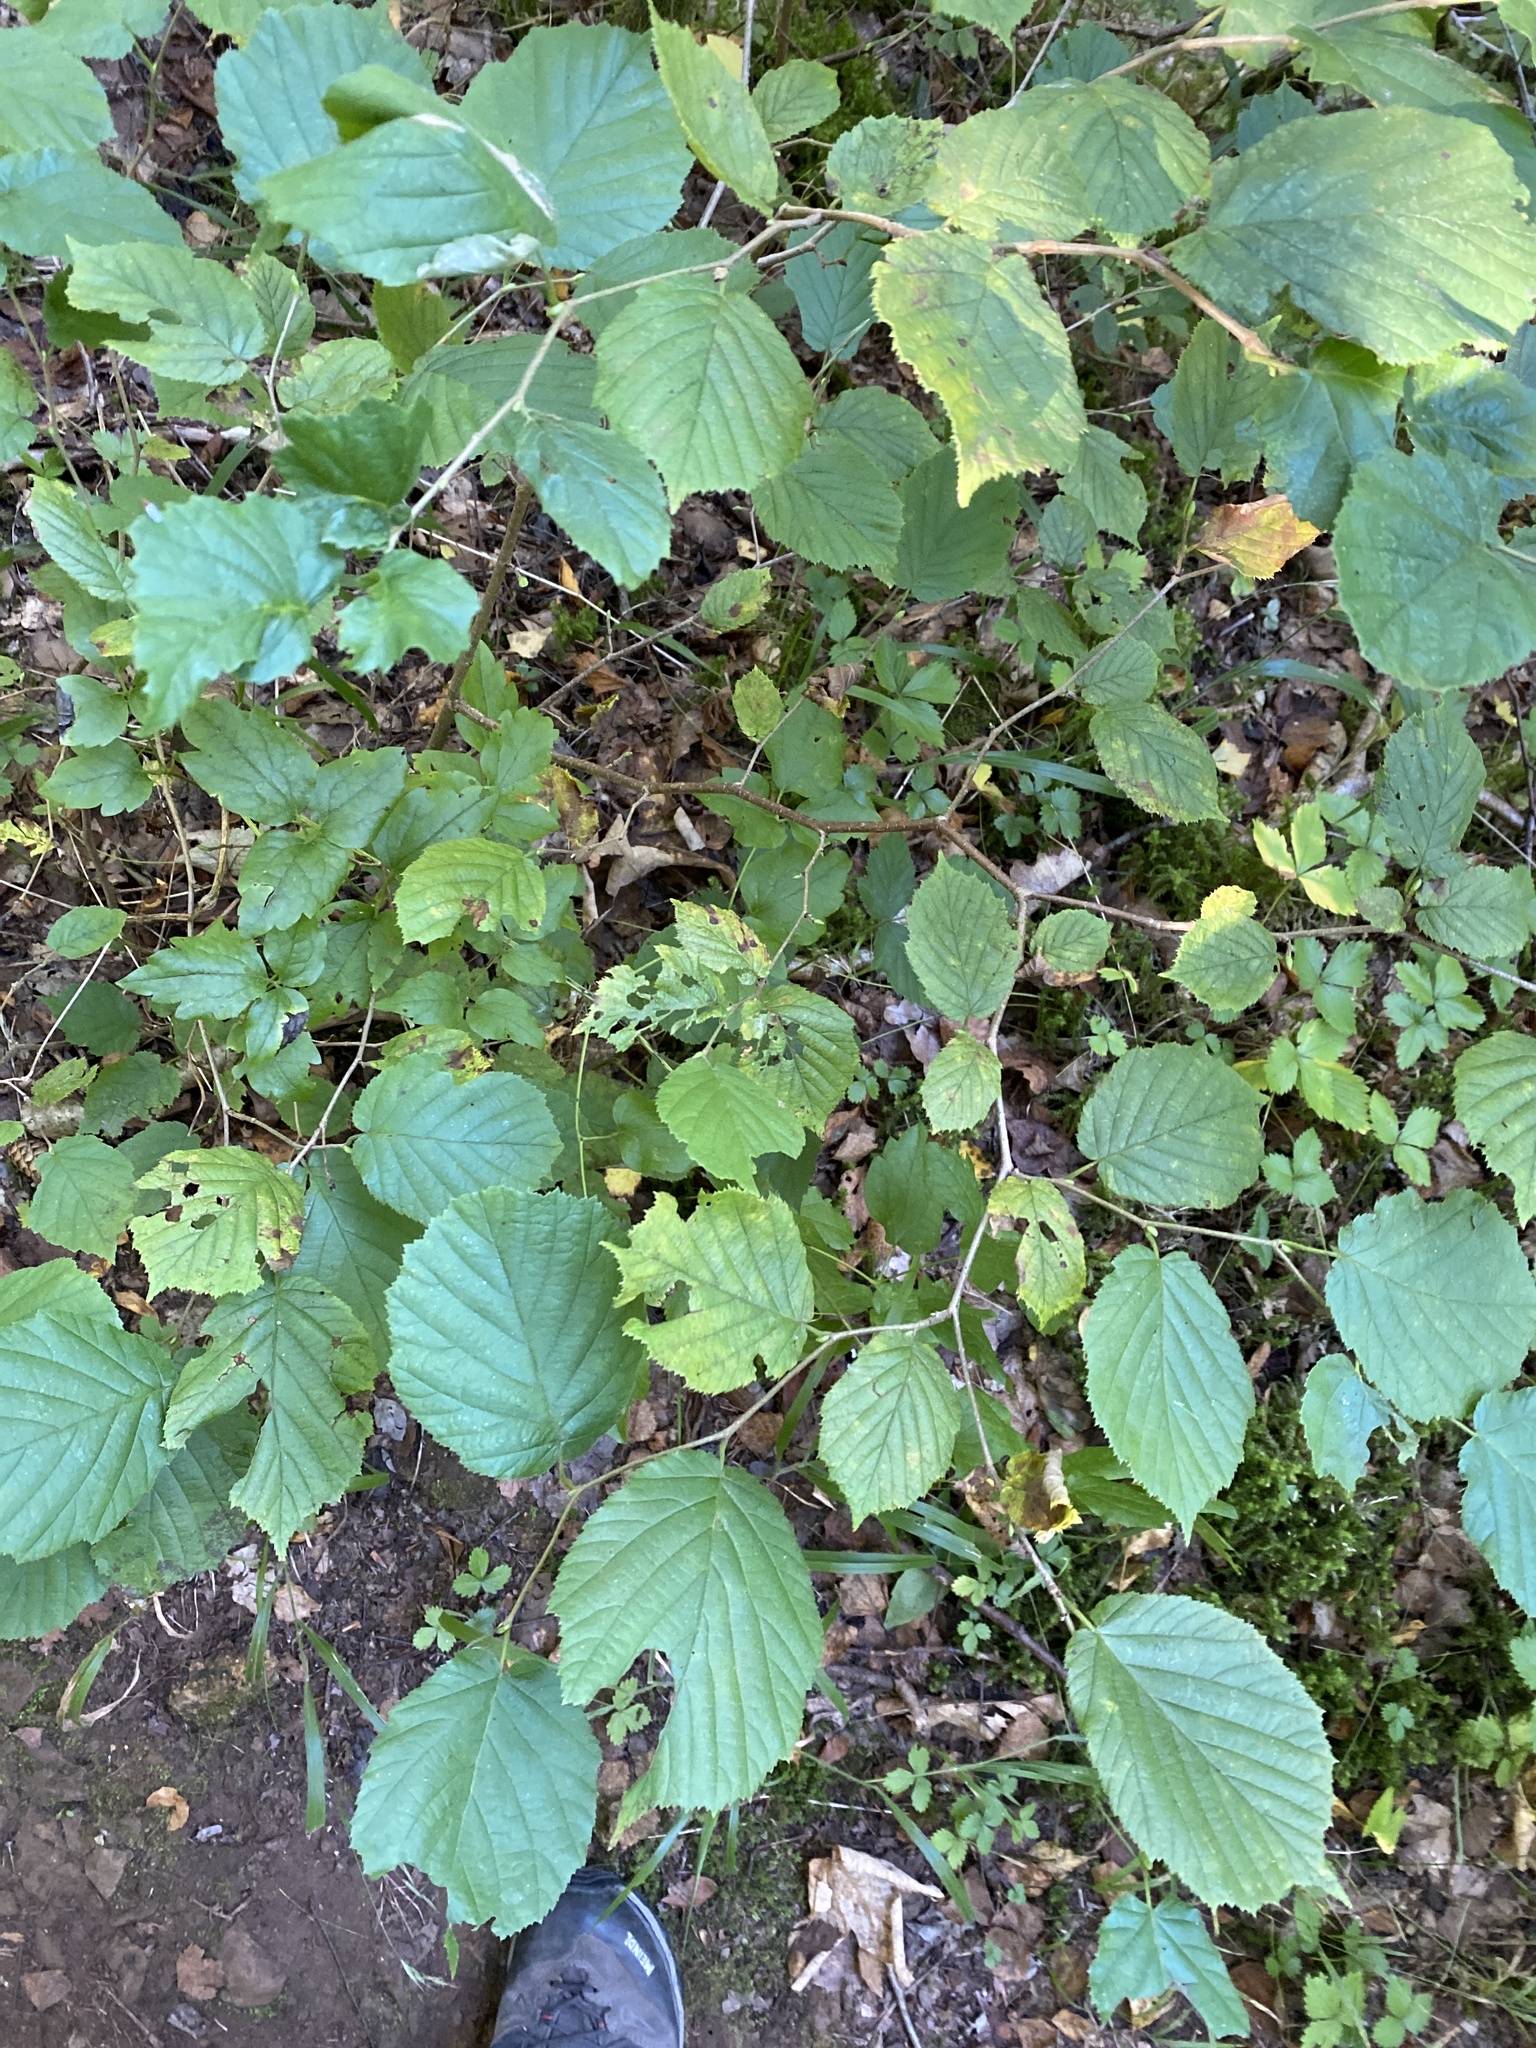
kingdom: Plantae
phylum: Tracheophyta
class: Magnoliopsida
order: Fagales
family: Betulaceae
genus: Corylus
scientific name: Corylus avellana
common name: European hazel
